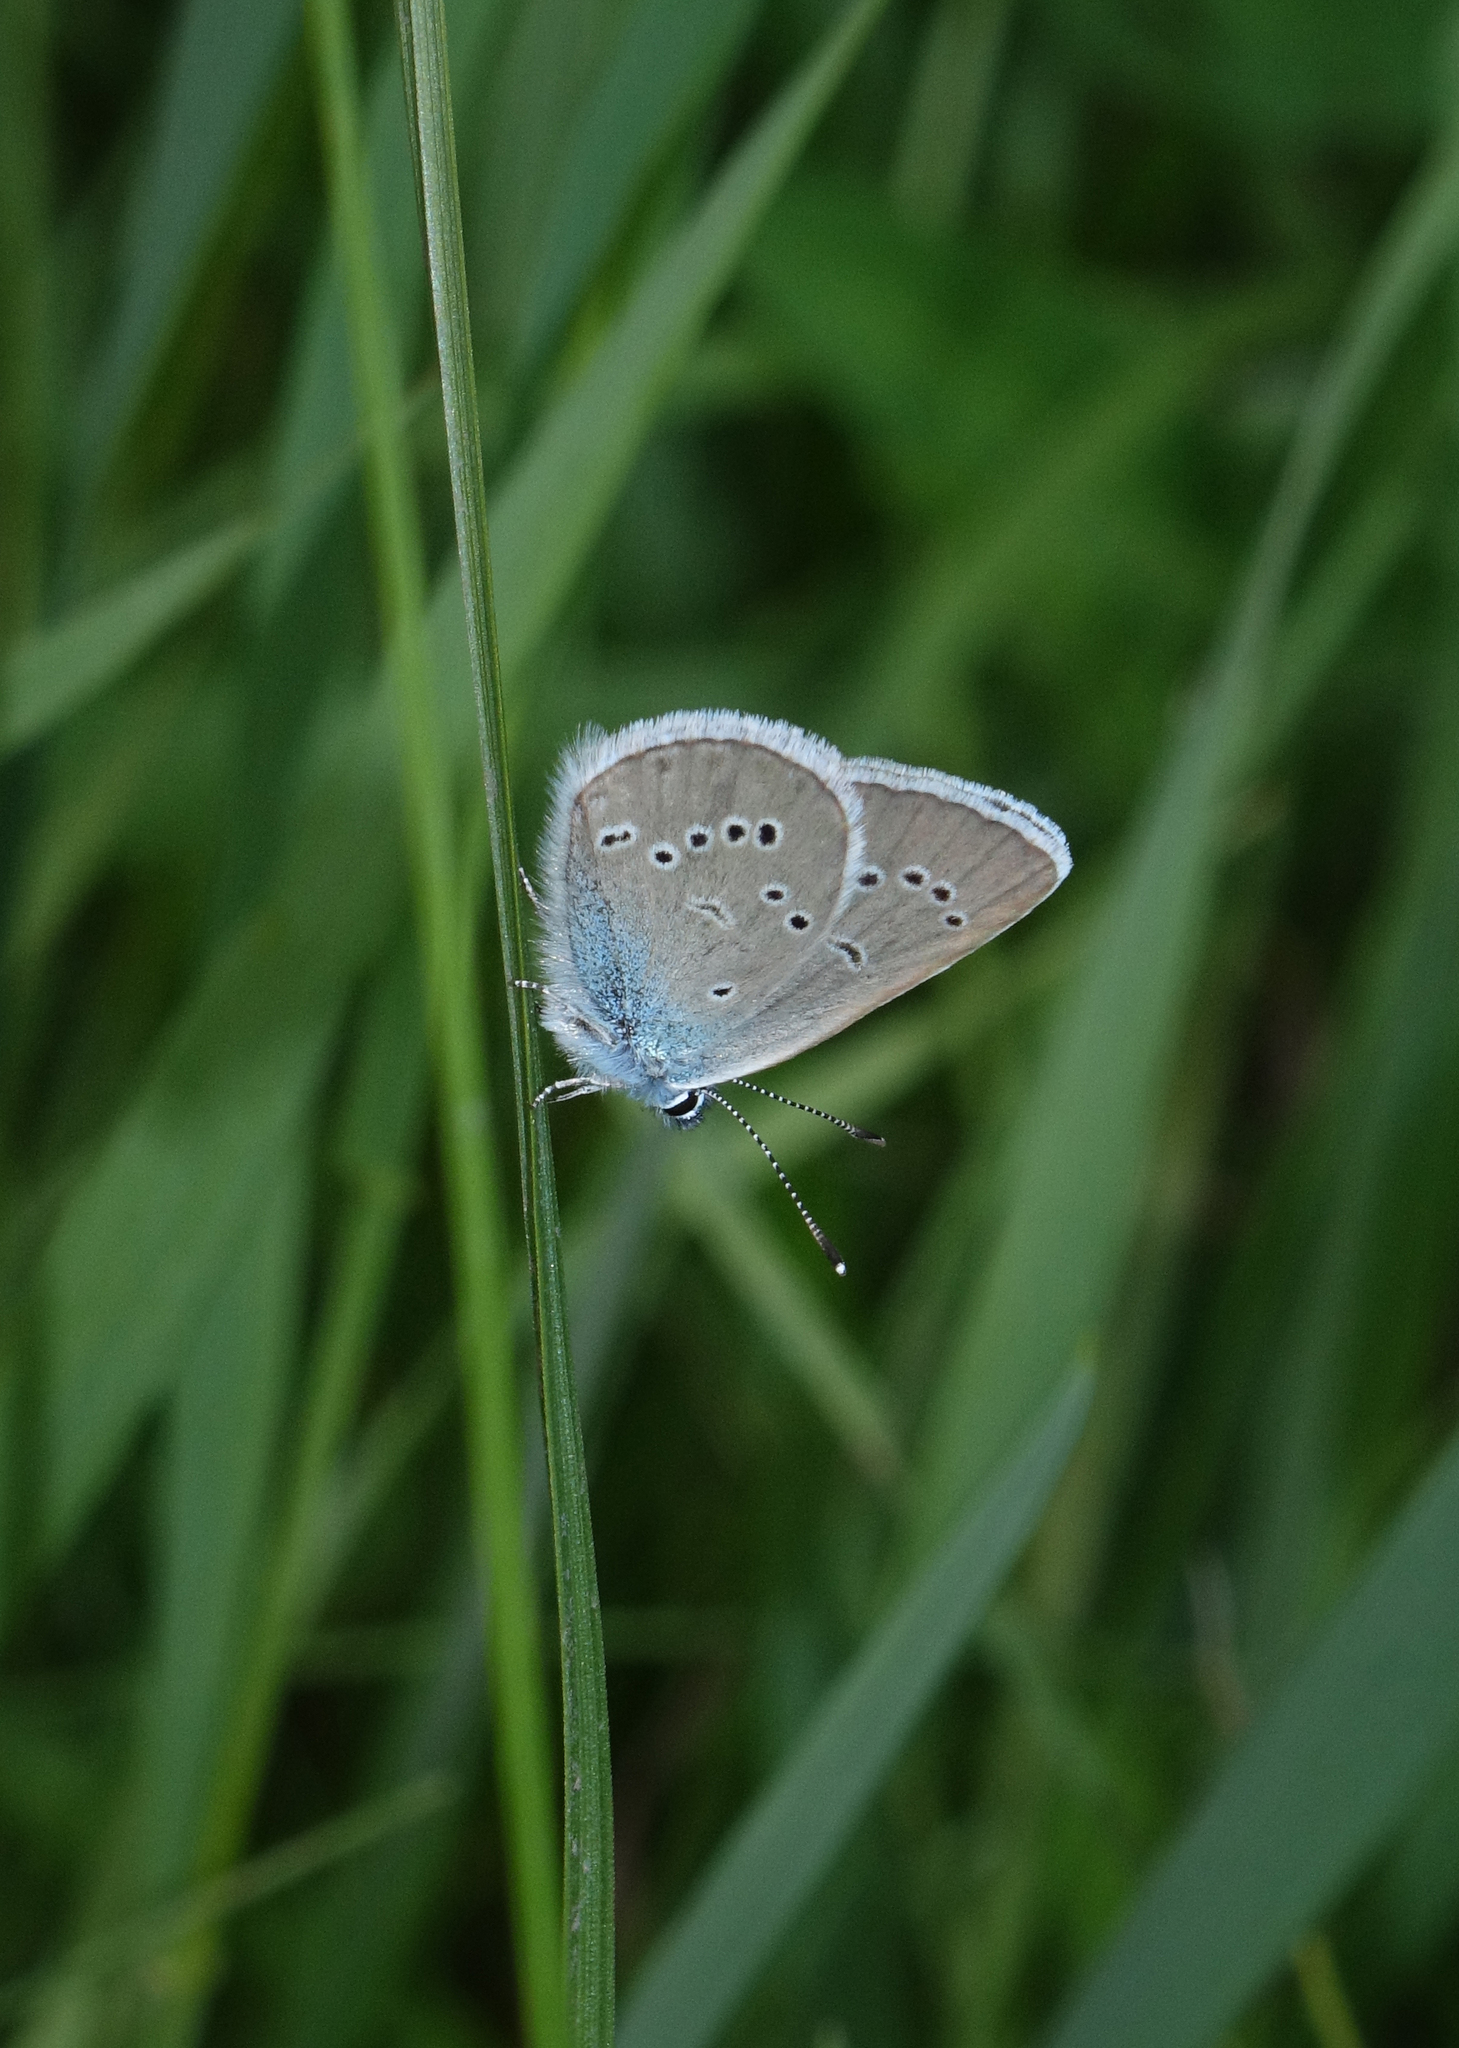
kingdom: Animalia
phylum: Arthropoda
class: Insecta
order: Lepidoptera
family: Lycaenidae
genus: Cyaniris
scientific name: Cyaniris semiargus
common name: Mazarine blue
